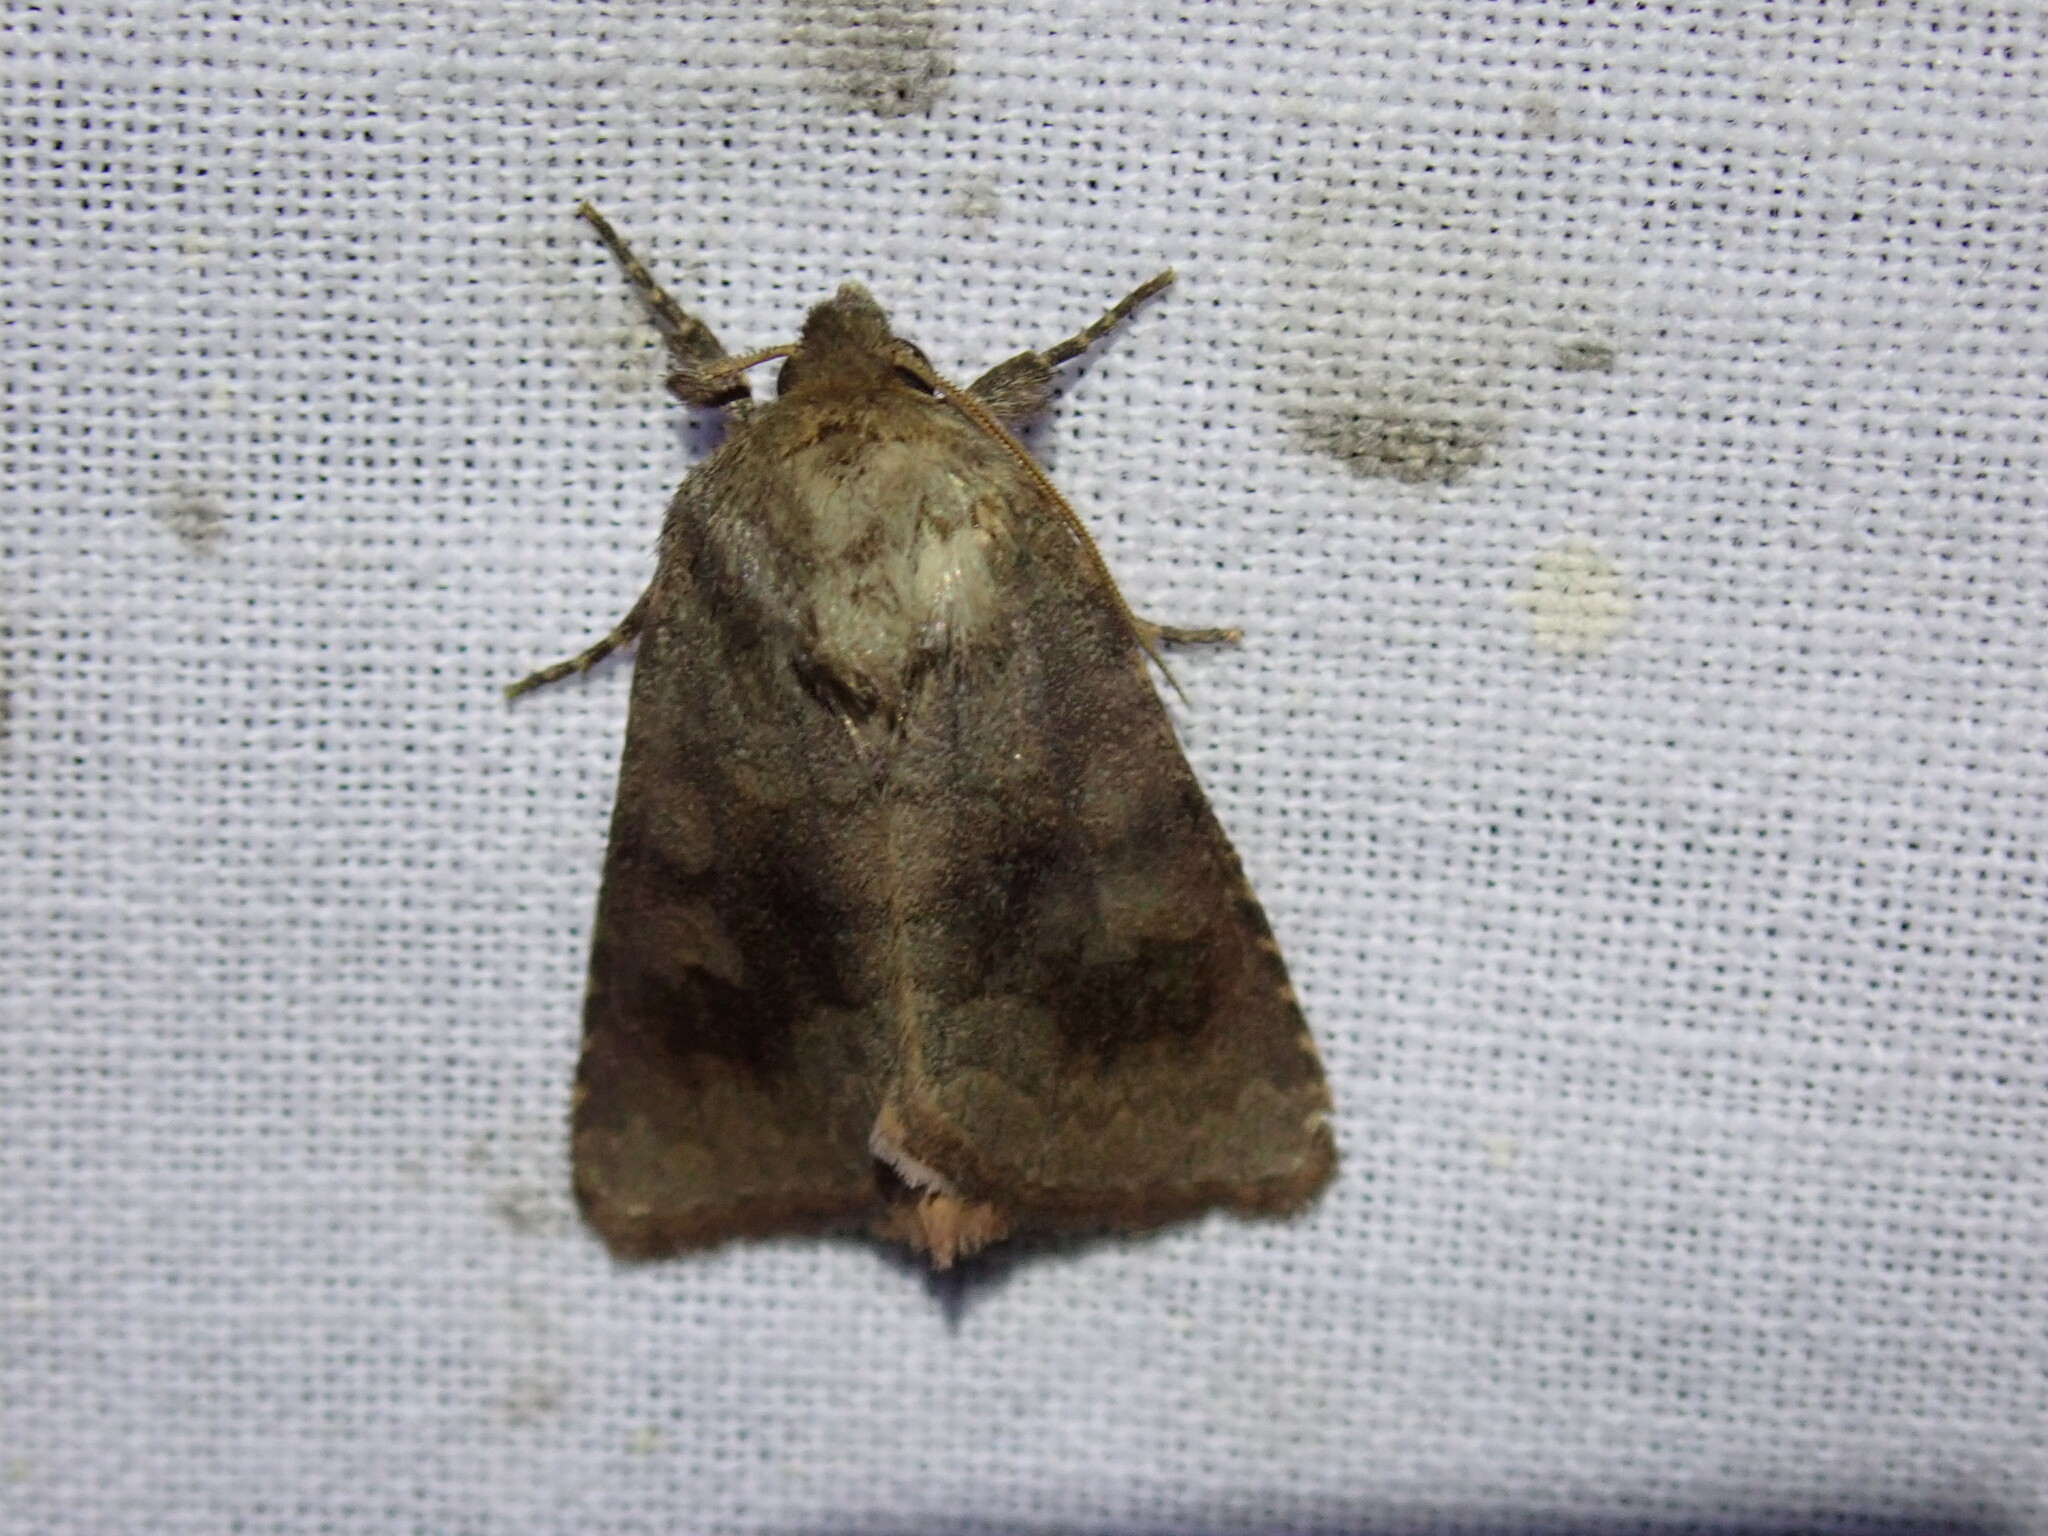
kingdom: Animalia
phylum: Arthropoda
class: Insecta
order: Lepidoptera
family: Noctuidae
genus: Nephelodes
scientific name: Nephelodes minians
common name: Bronzed cutworm
